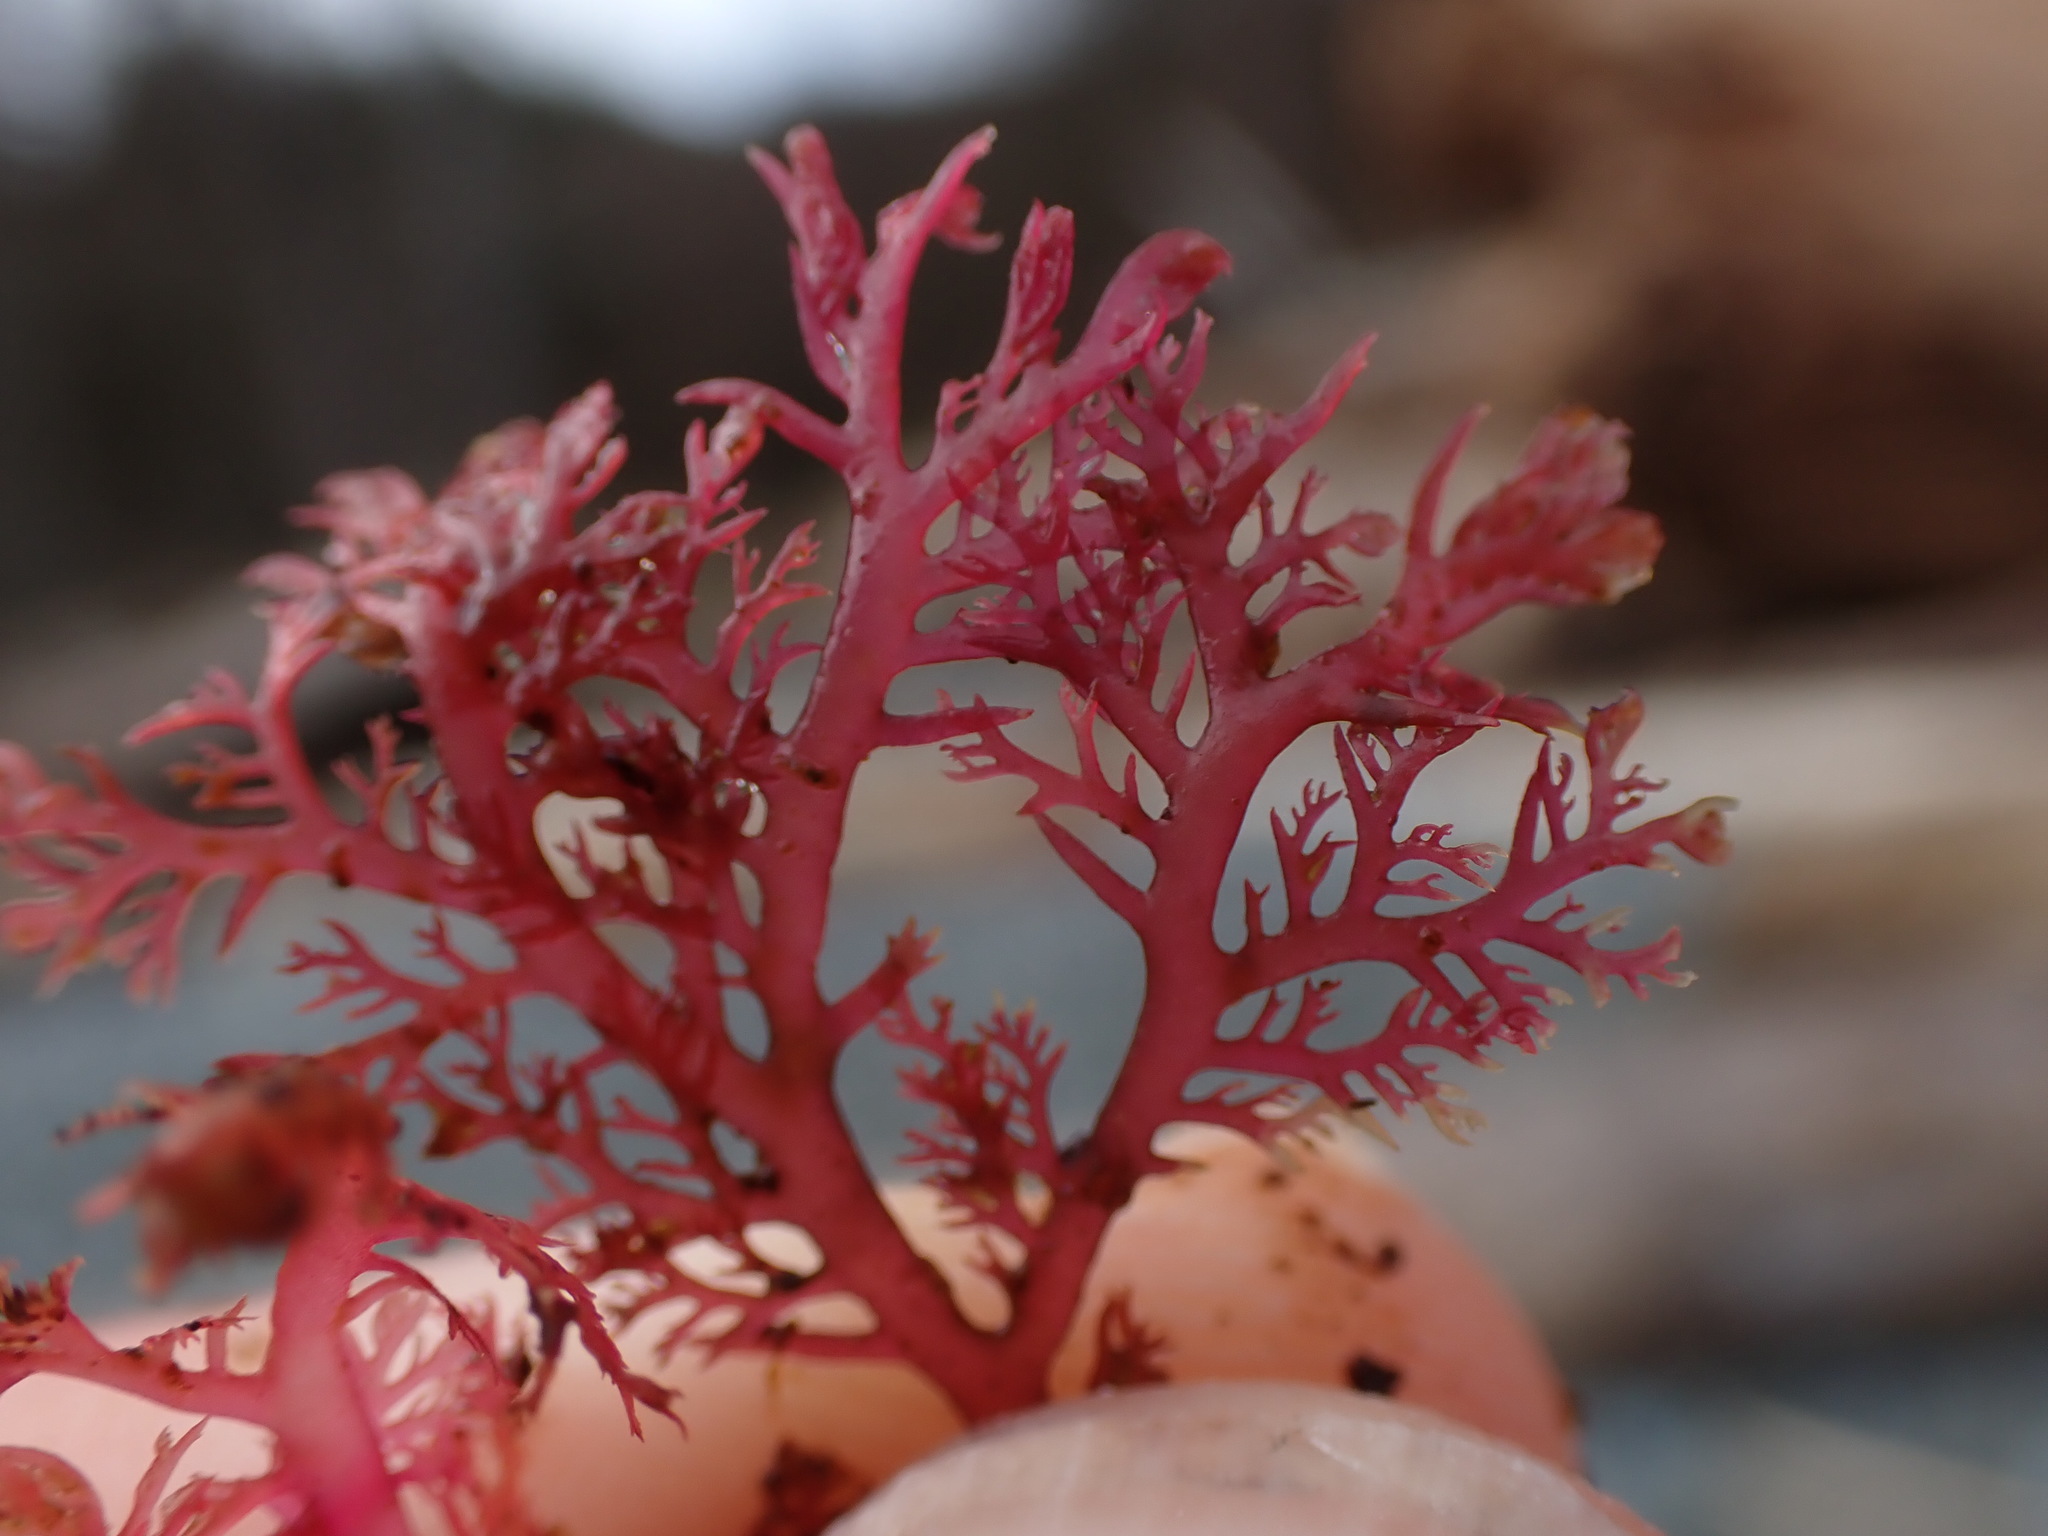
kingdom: Plantae
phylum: Rhodophyta
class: Florideophyceae
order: Plocamiales
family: Plocamiaceae
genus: Plocamium
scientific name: Plocamium cartilagineum
